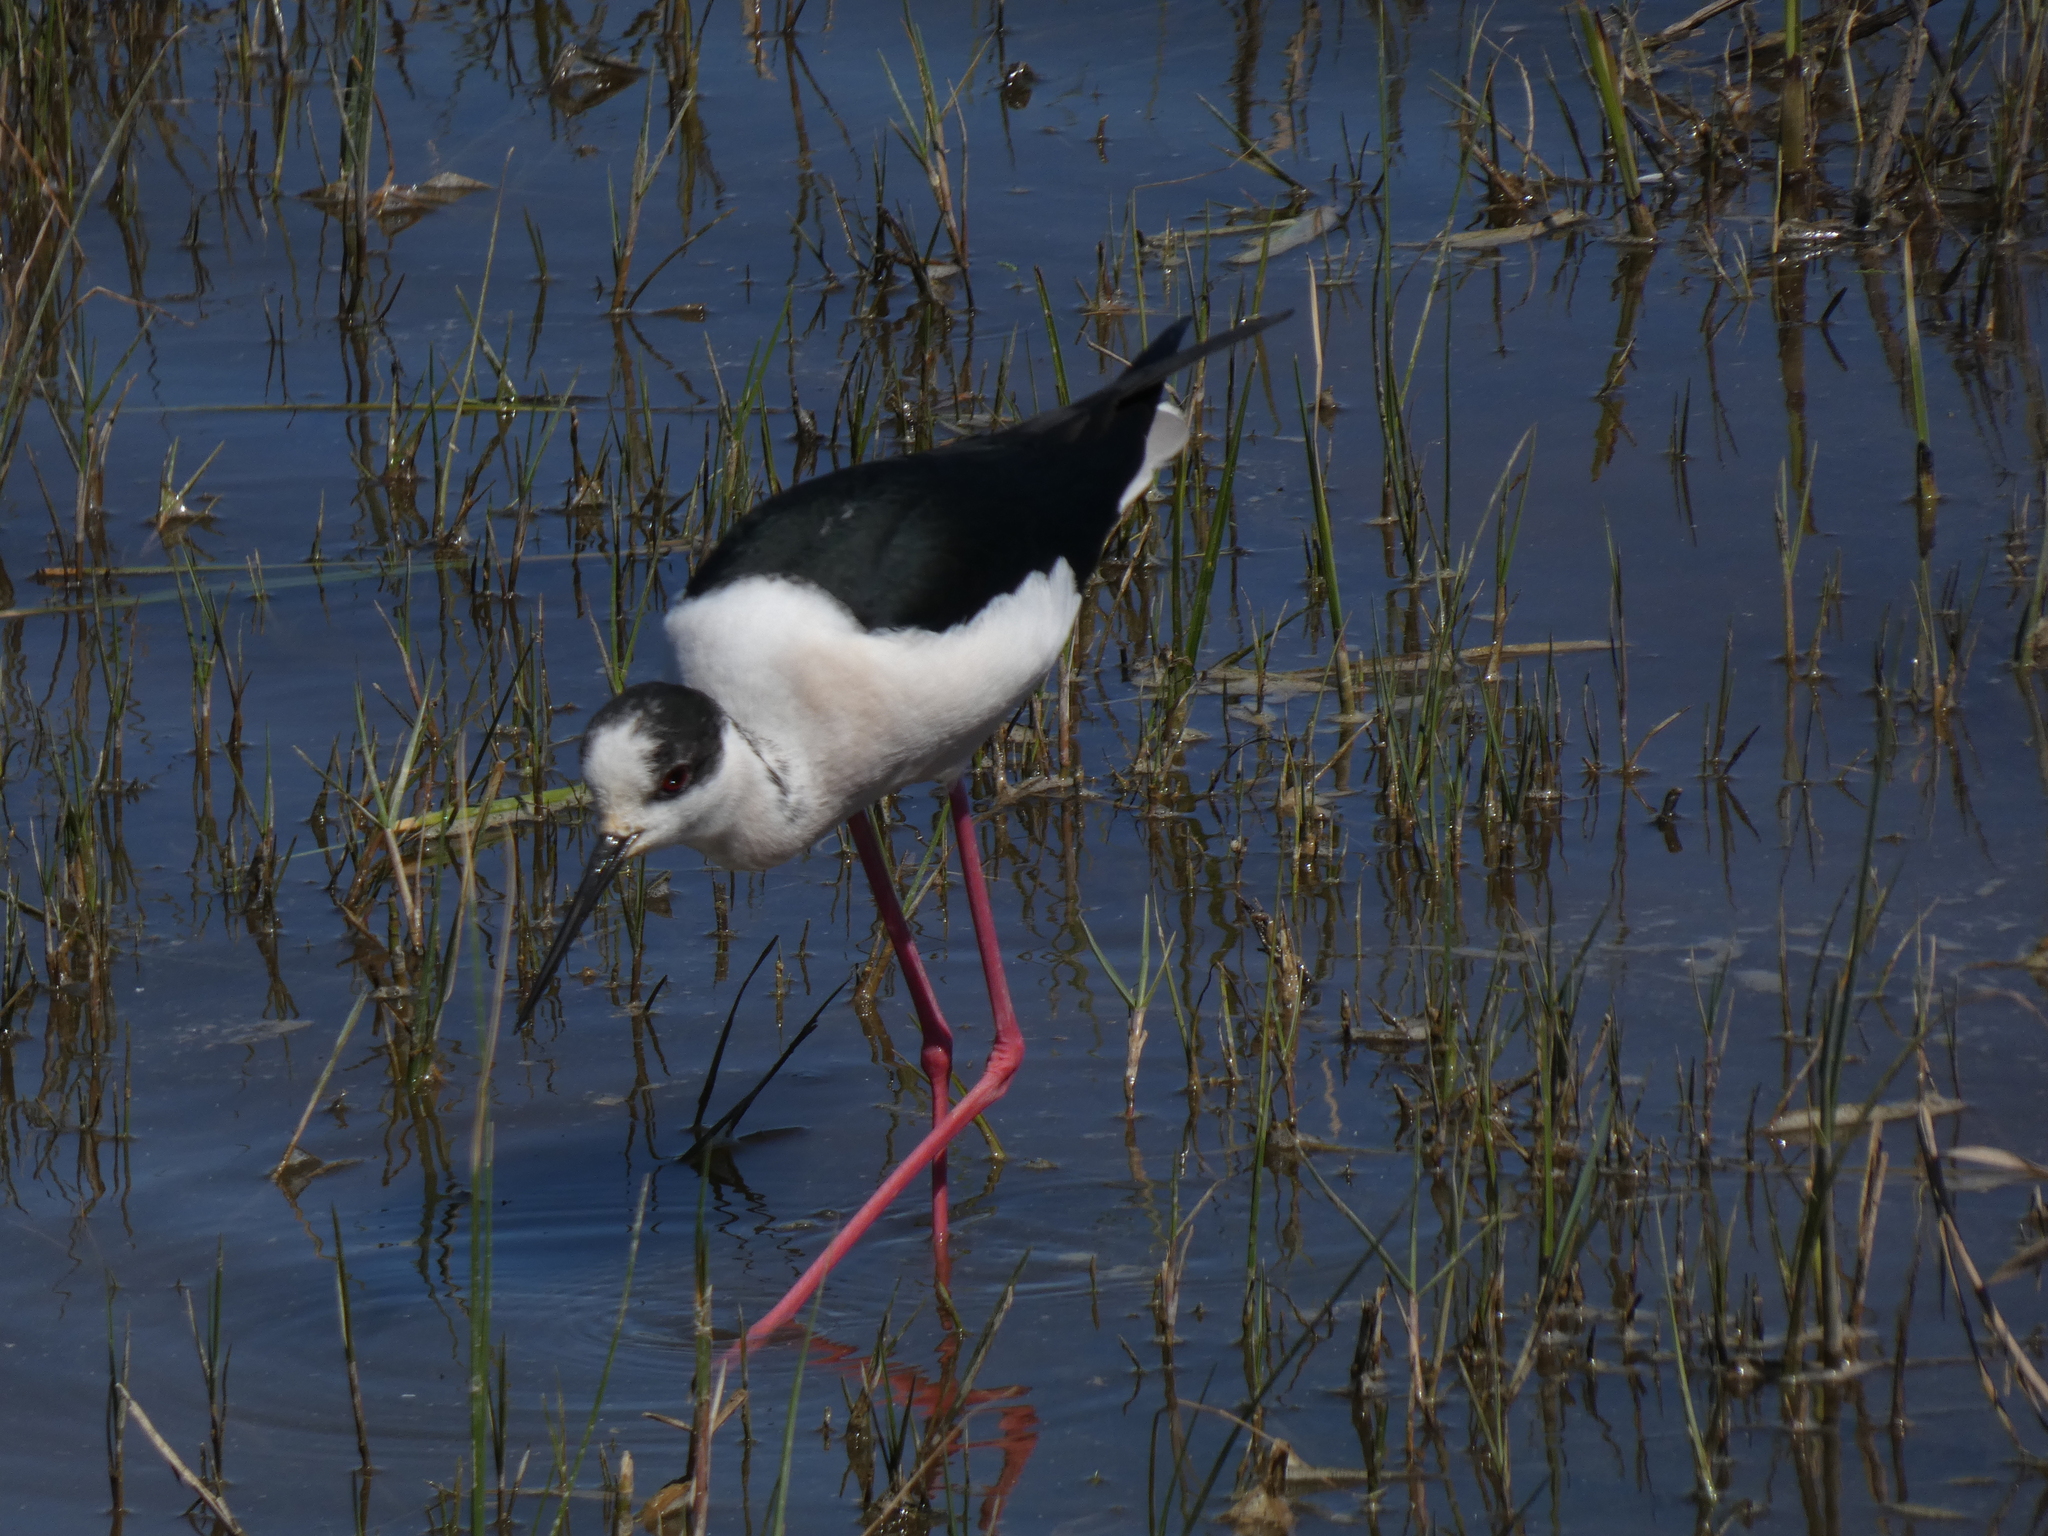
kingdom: Animalia
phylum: Chordata
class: Aves
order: Charadriiformes
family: Recurvirostridae
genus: Himantopus
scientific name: Himantopus himantopus
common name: Black-winged stilt
